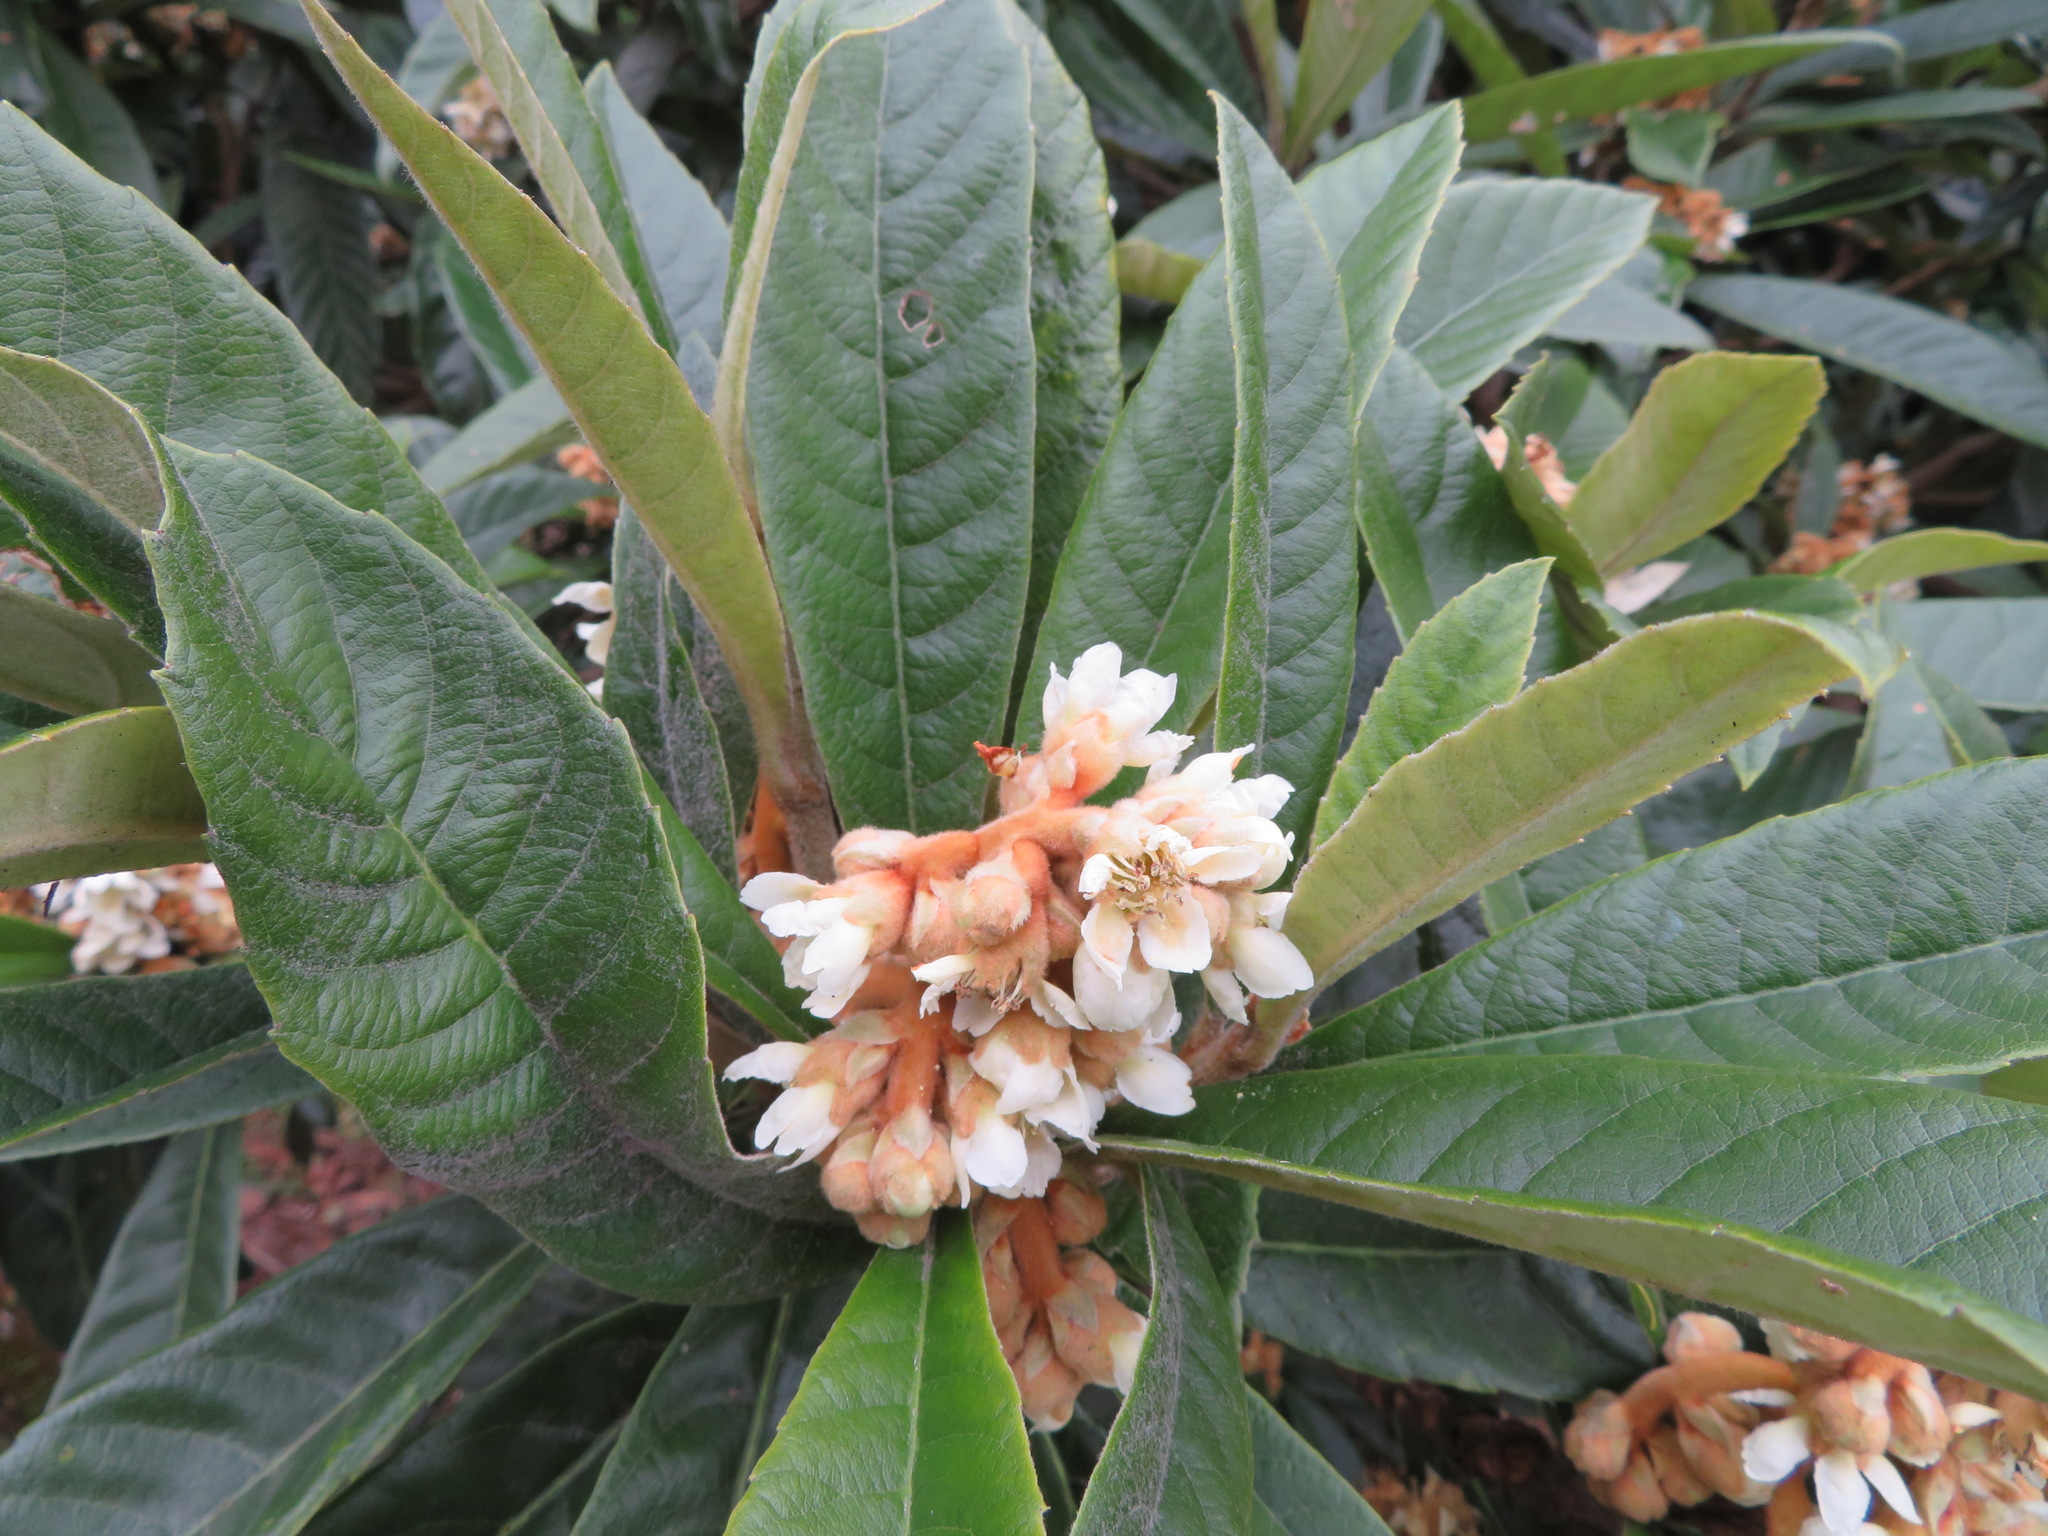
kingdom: Plantae
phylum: Tracheophyta
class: Magnoliopsida
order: Rosales
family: Rosaceae
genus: Rhaphiolepis
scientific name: Rhaphiolepis bibas
